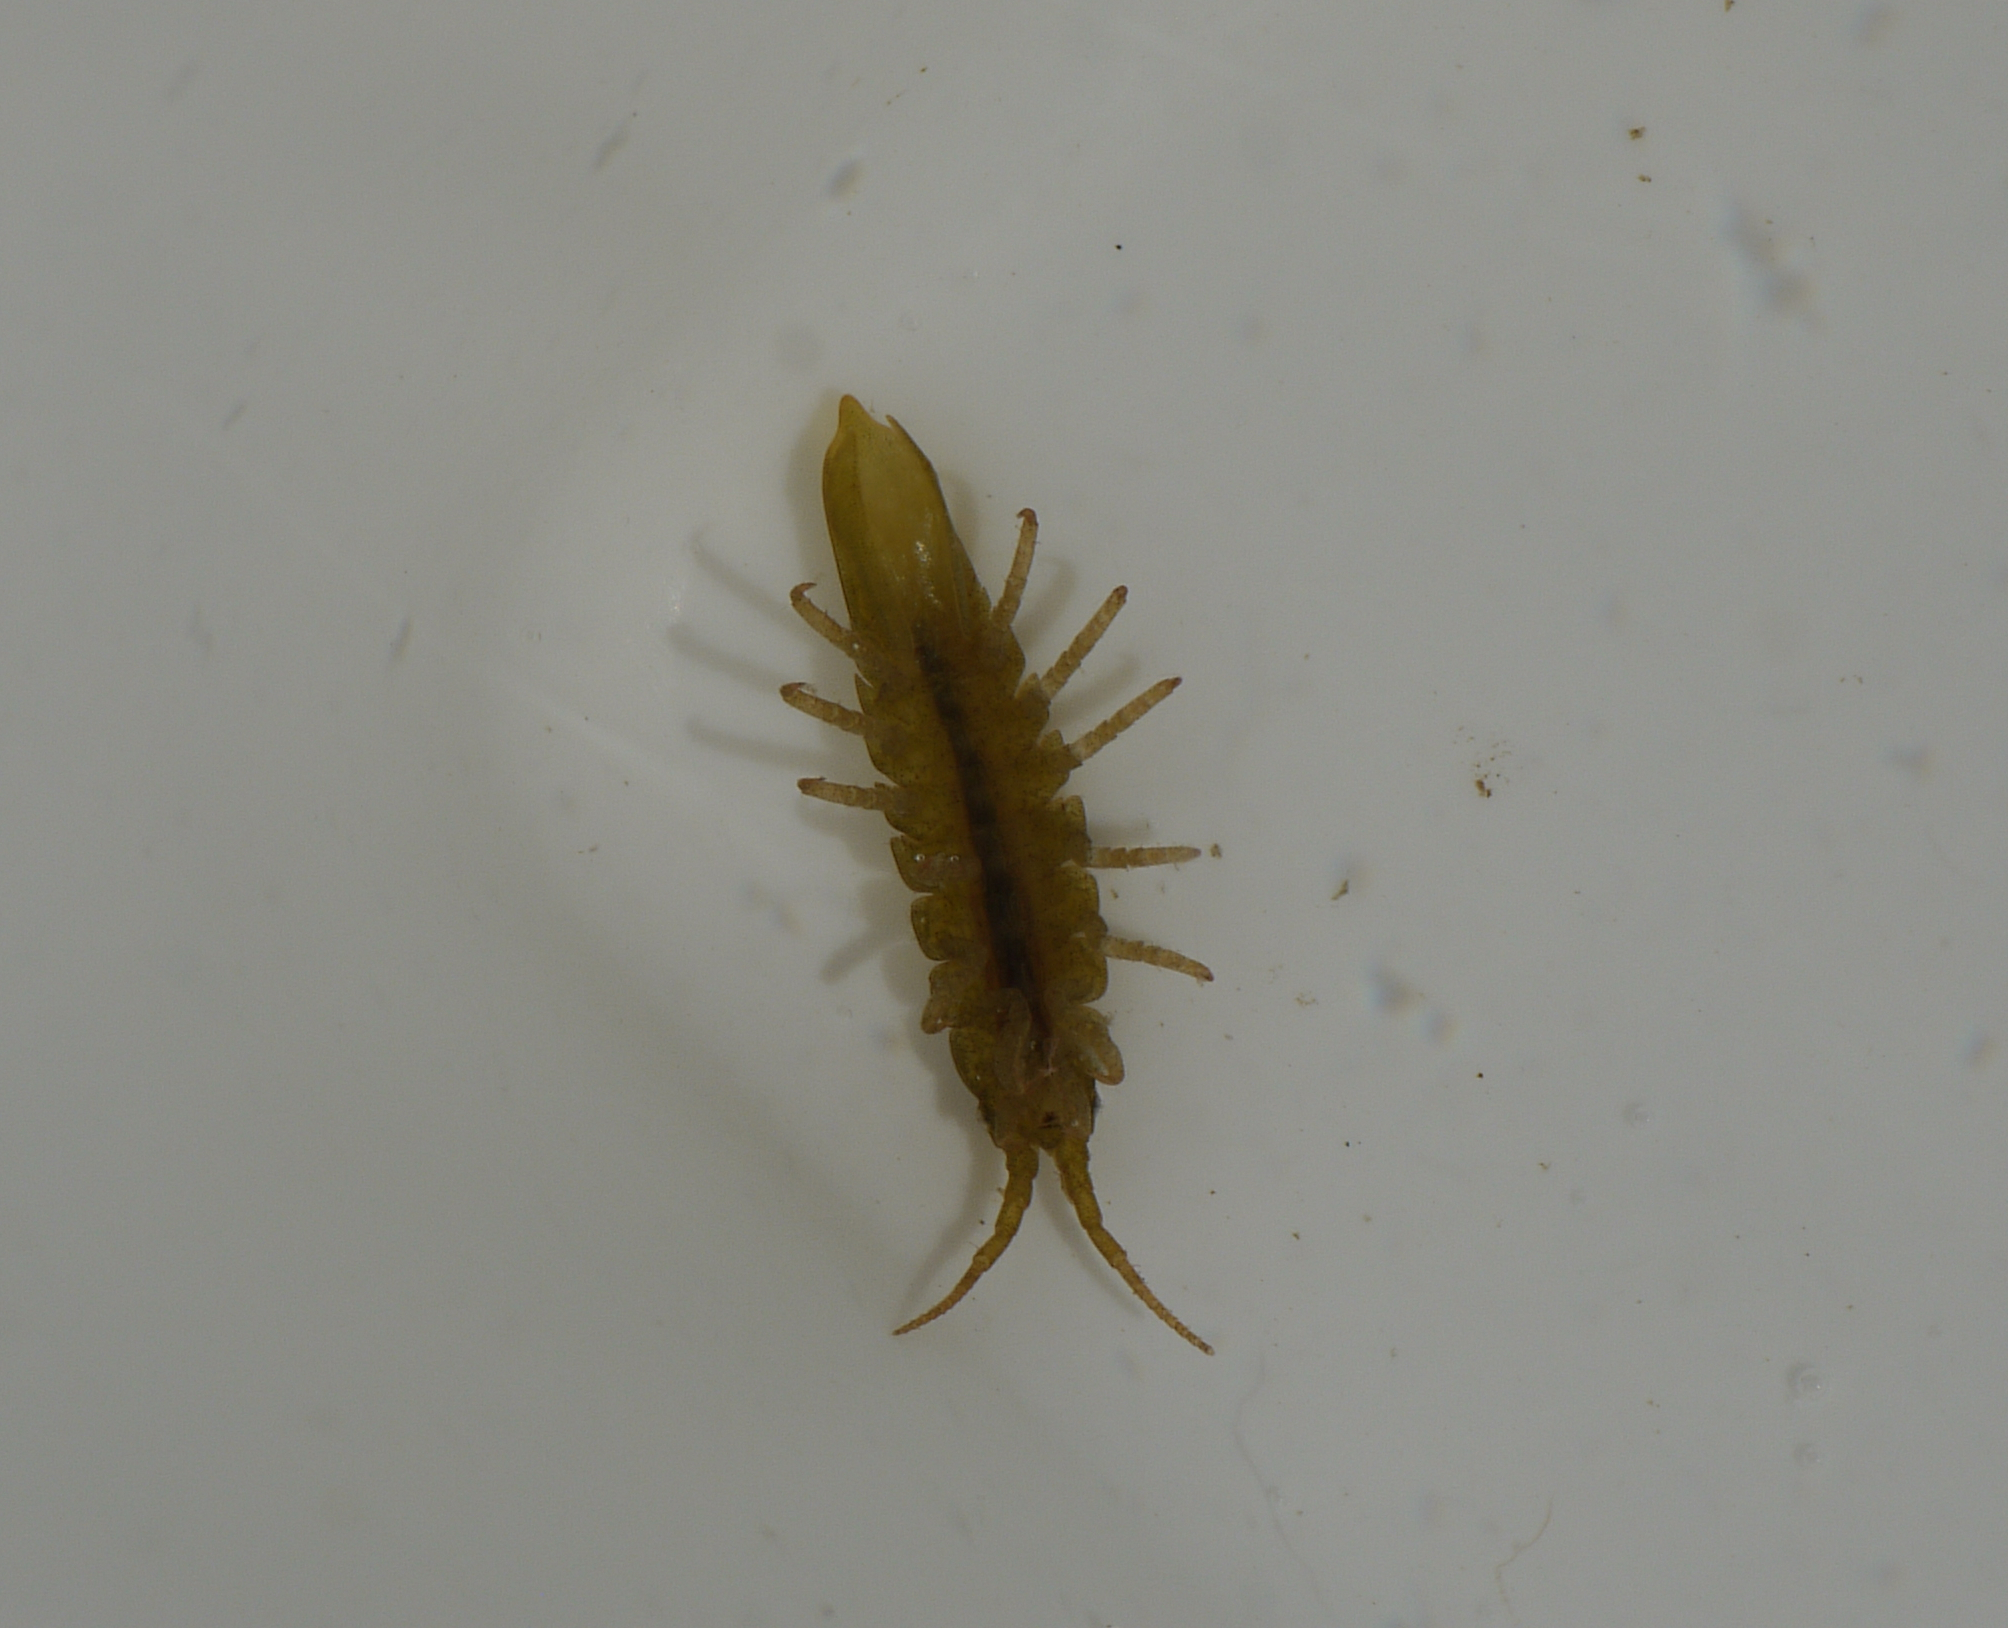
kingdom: Animalia
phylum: Arthropoda
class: Malacostraca
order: Isopoda
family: Idoteidae
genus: Idotea
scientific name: Idotea granulosa
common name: Granular marine isopod
